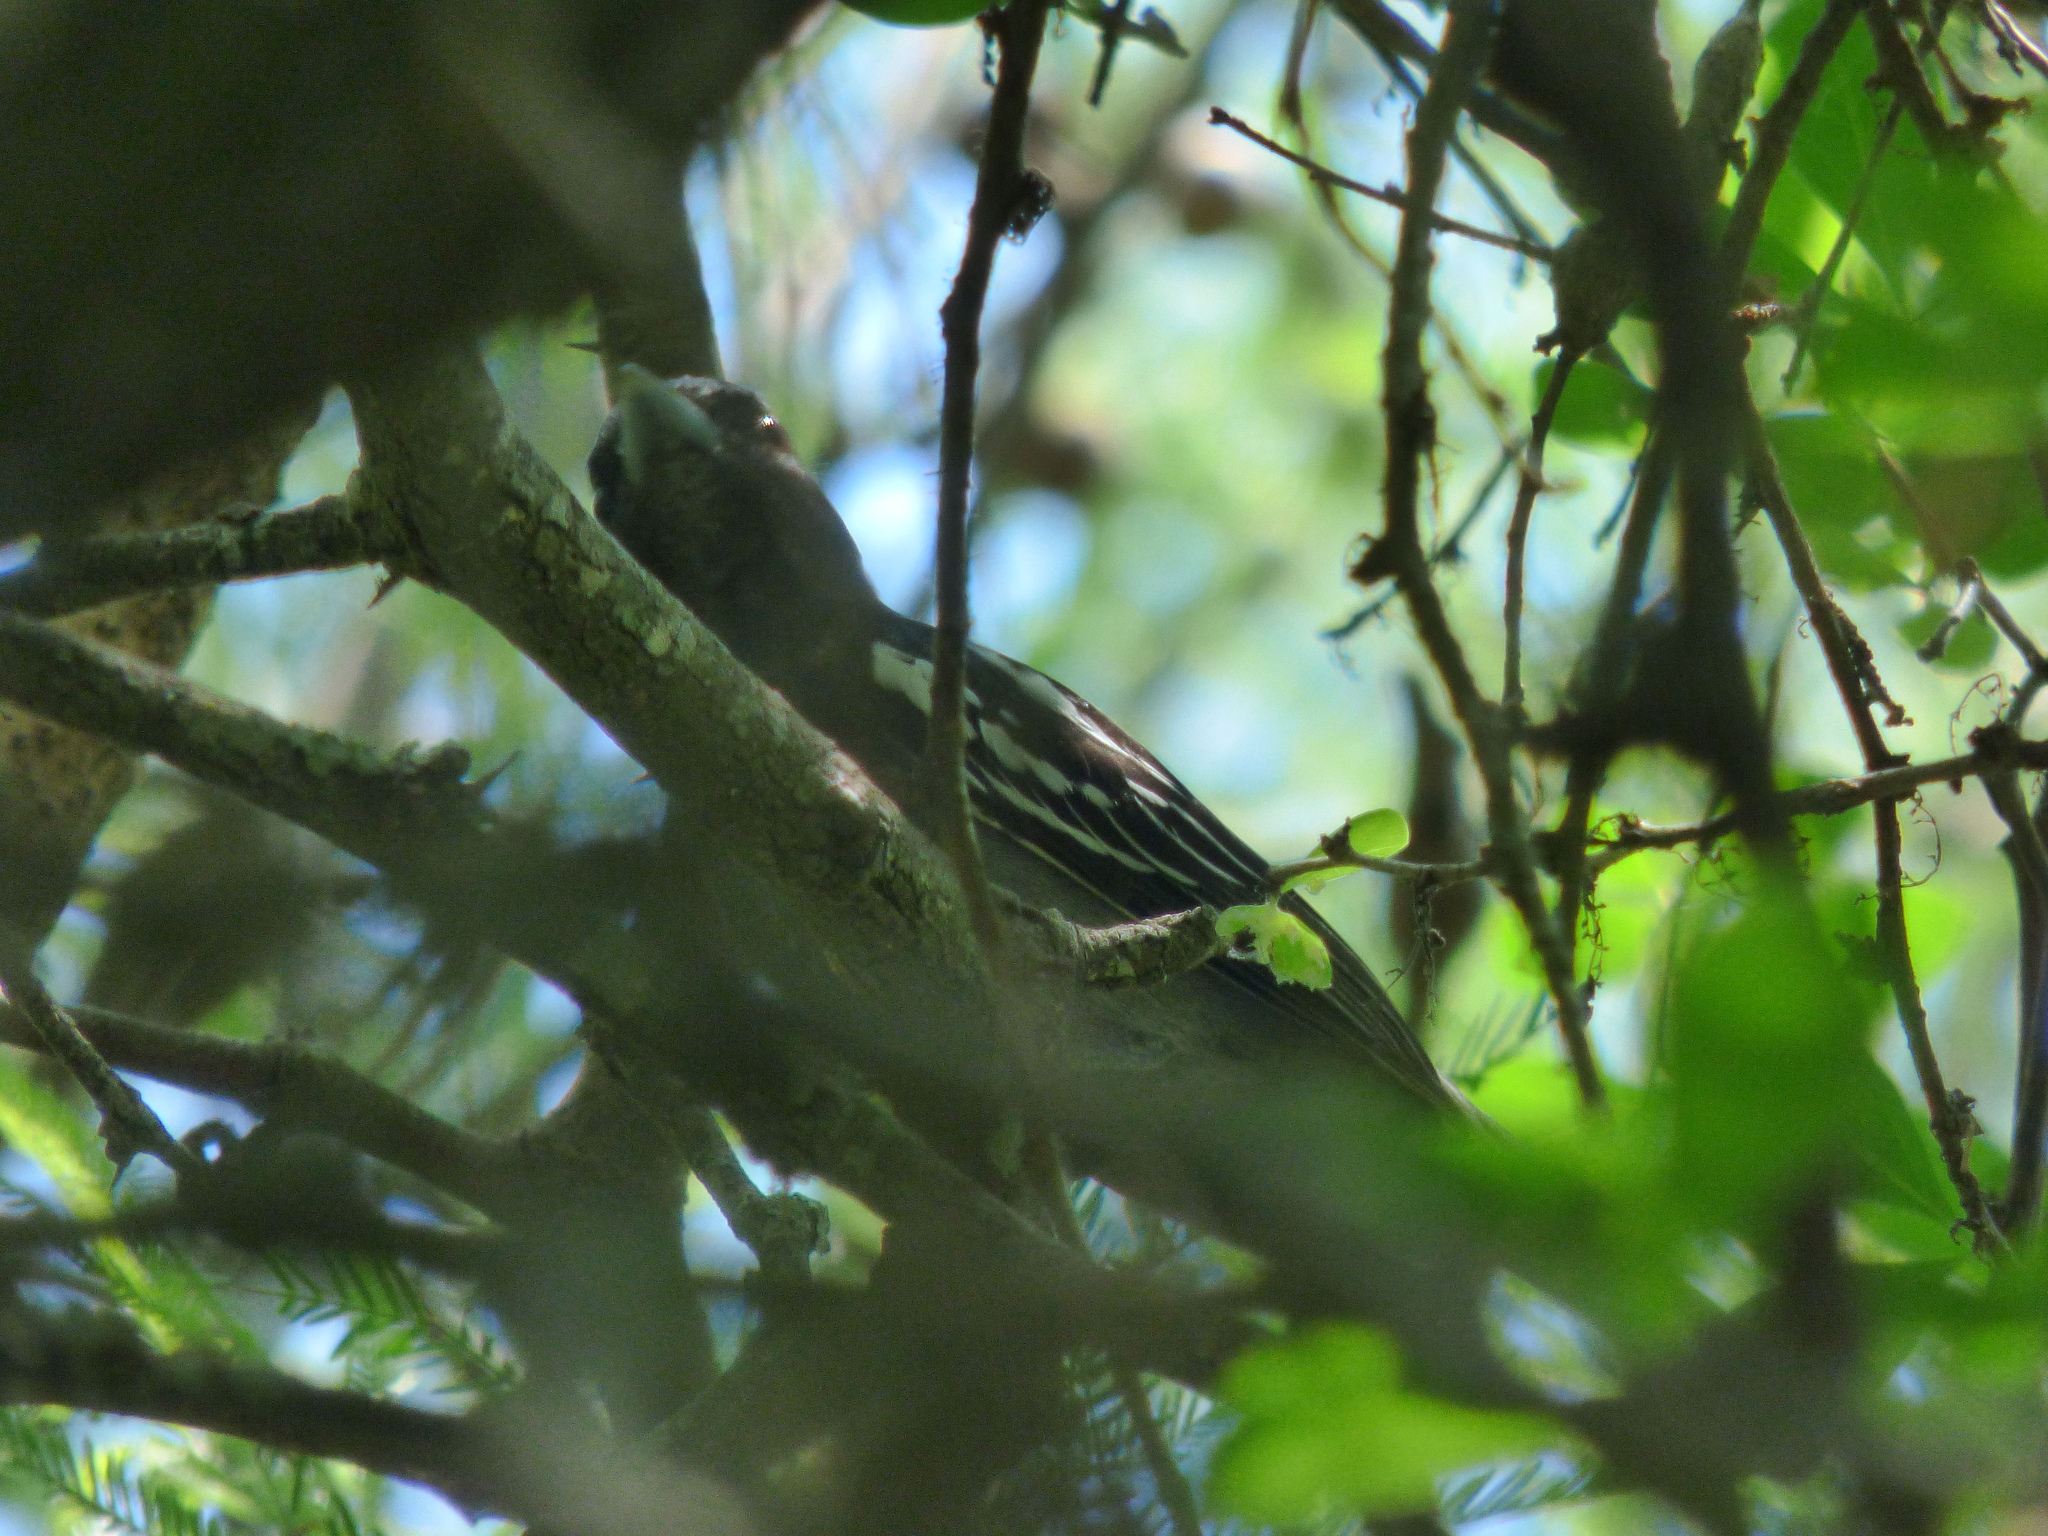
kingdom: Animalia
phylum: Chordata
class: Aves
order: Passeriformes
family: Cotingidae
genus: Pachyramphus
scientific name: Pachyramphus polychopterus
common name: White-winged becard
